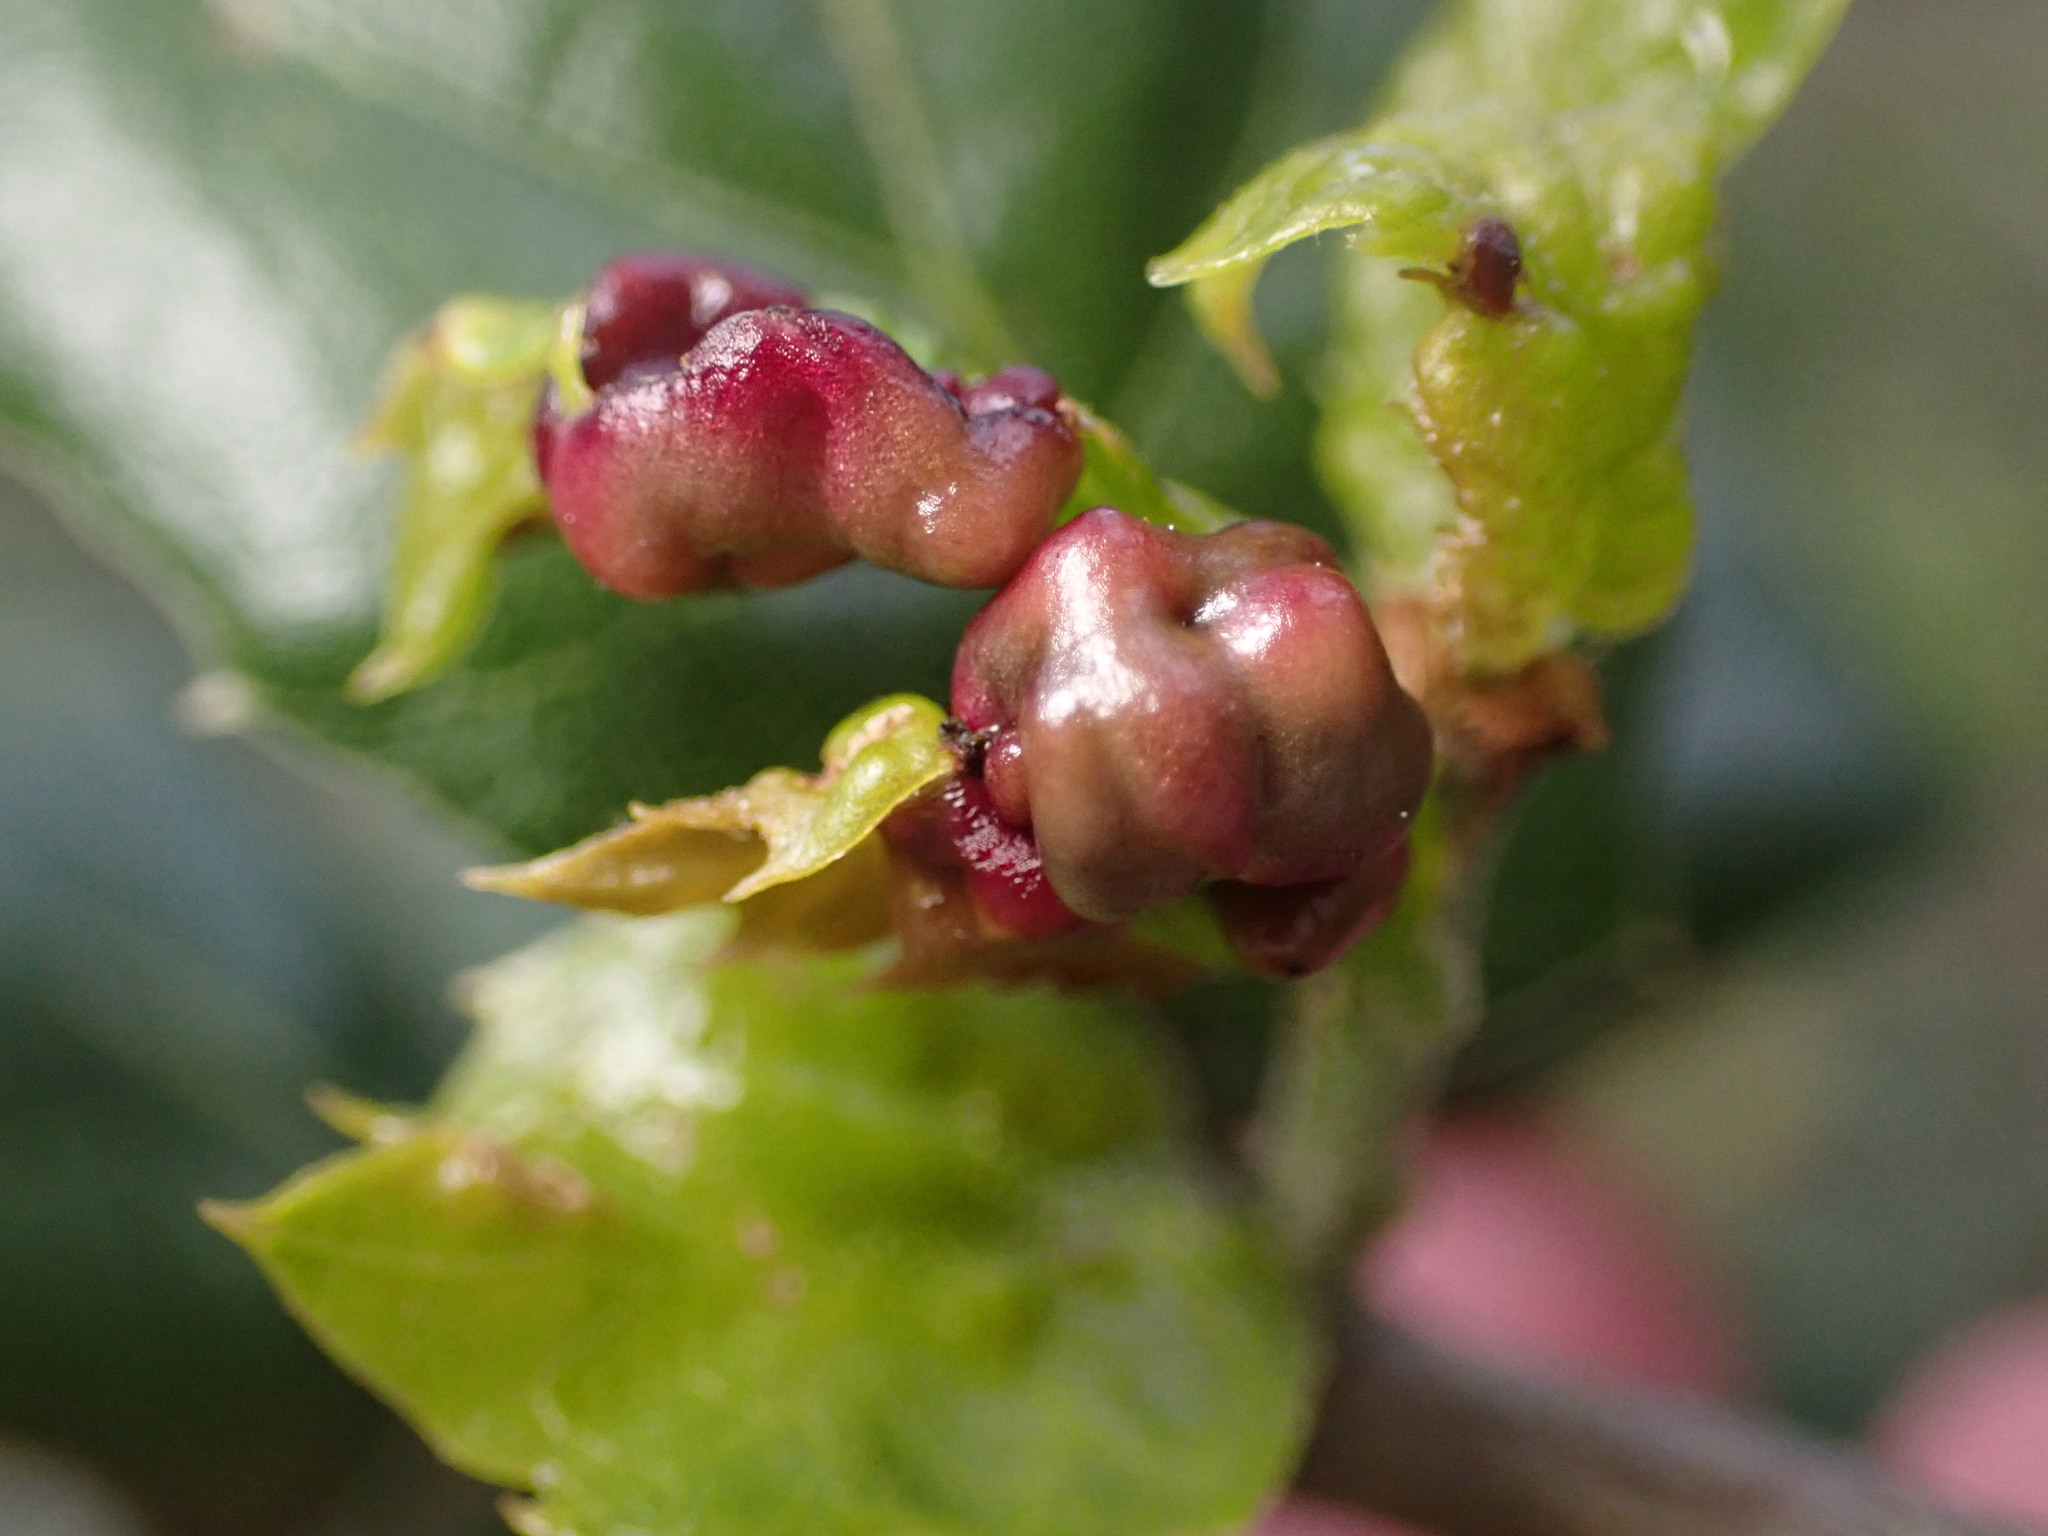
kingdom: Animalia
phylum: Arthropoda
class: Insecta
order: Hymenoptera
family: Cynipidae
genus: Dryocosmus
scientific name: Dryocosmus
